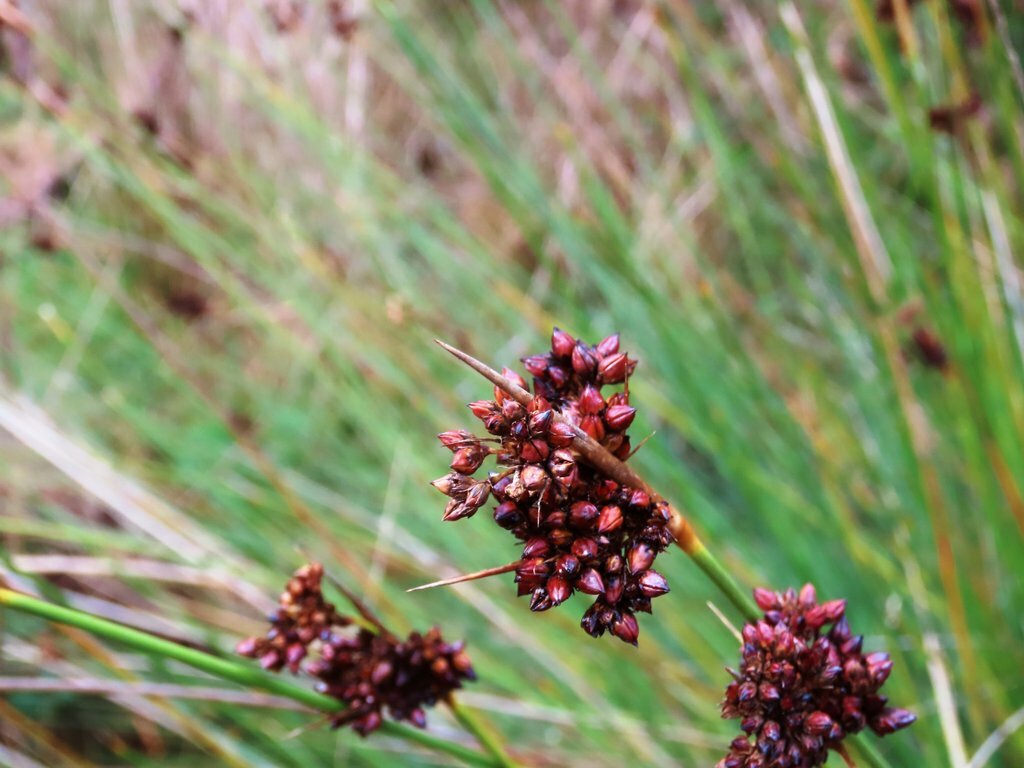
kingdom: Plantae
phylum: Tracheophyta
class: Liliopsida
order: Poales
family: Juncaceae
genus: Juncus
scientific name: Juncus acutus
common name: Sharp rush
